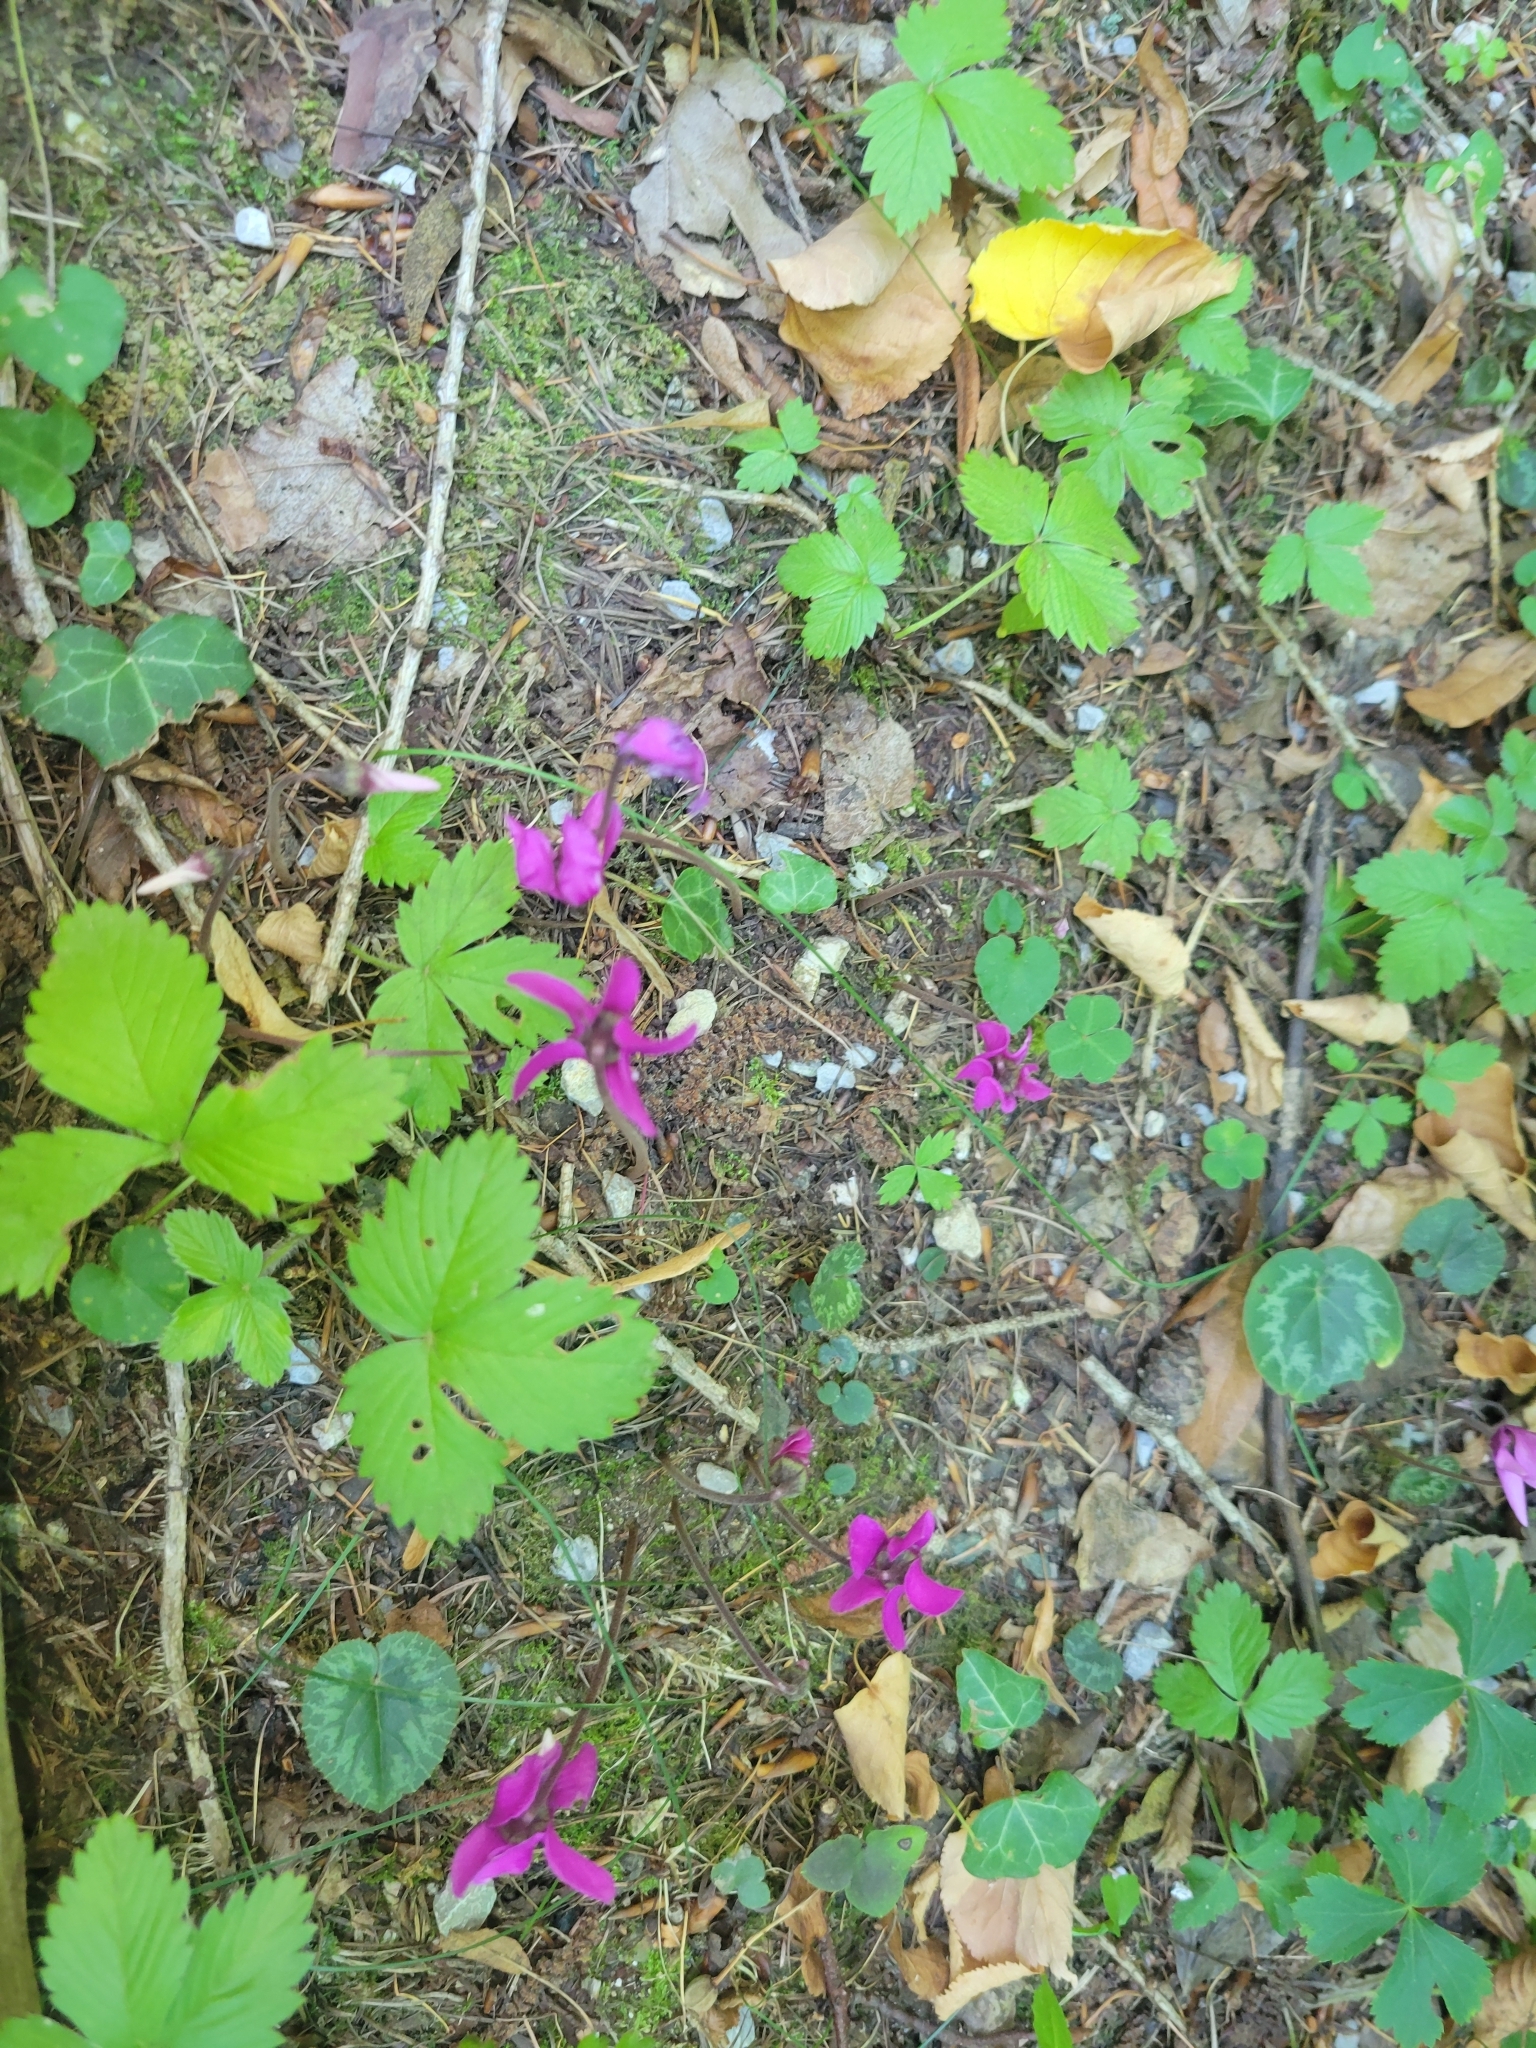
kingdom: Plantae
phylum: Tracheophyta
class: Magnoliopsida
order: Ericales
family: Primulaceae
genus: Cyclamen
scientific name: Cyclamen purpurascens
